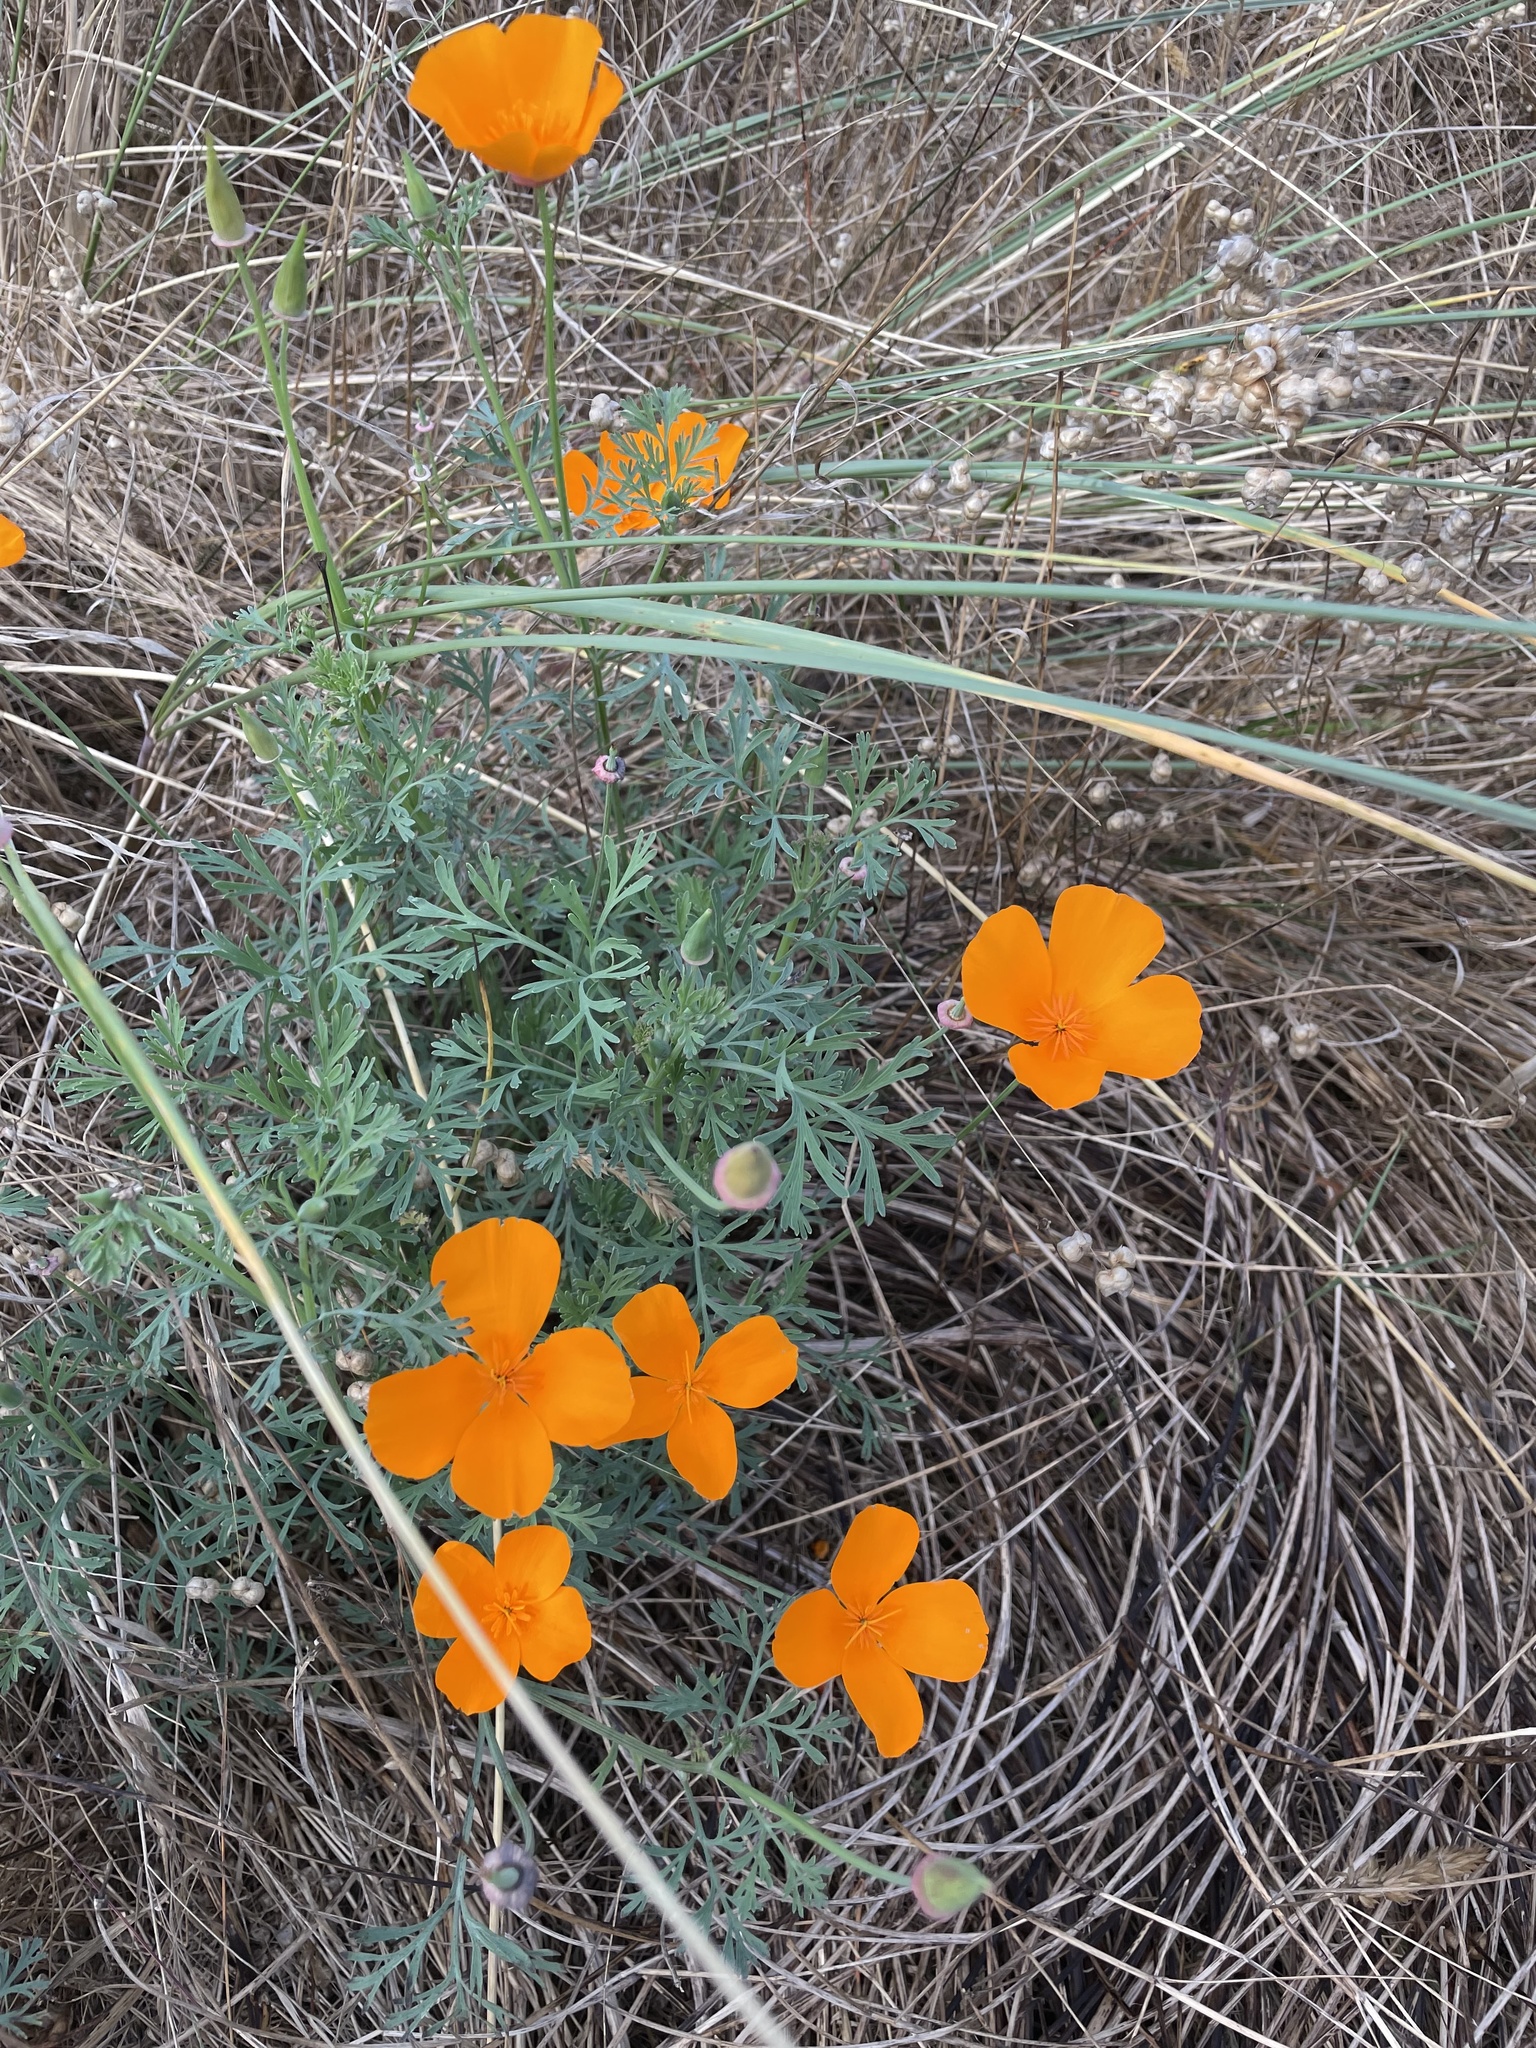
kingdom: Plantae
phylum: Tracheophyta
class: Magnoliopsida
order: Ranunculales
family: Papaveraceae
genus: Eschscholzia
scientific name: Eschscholzia californica
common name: California poppy
